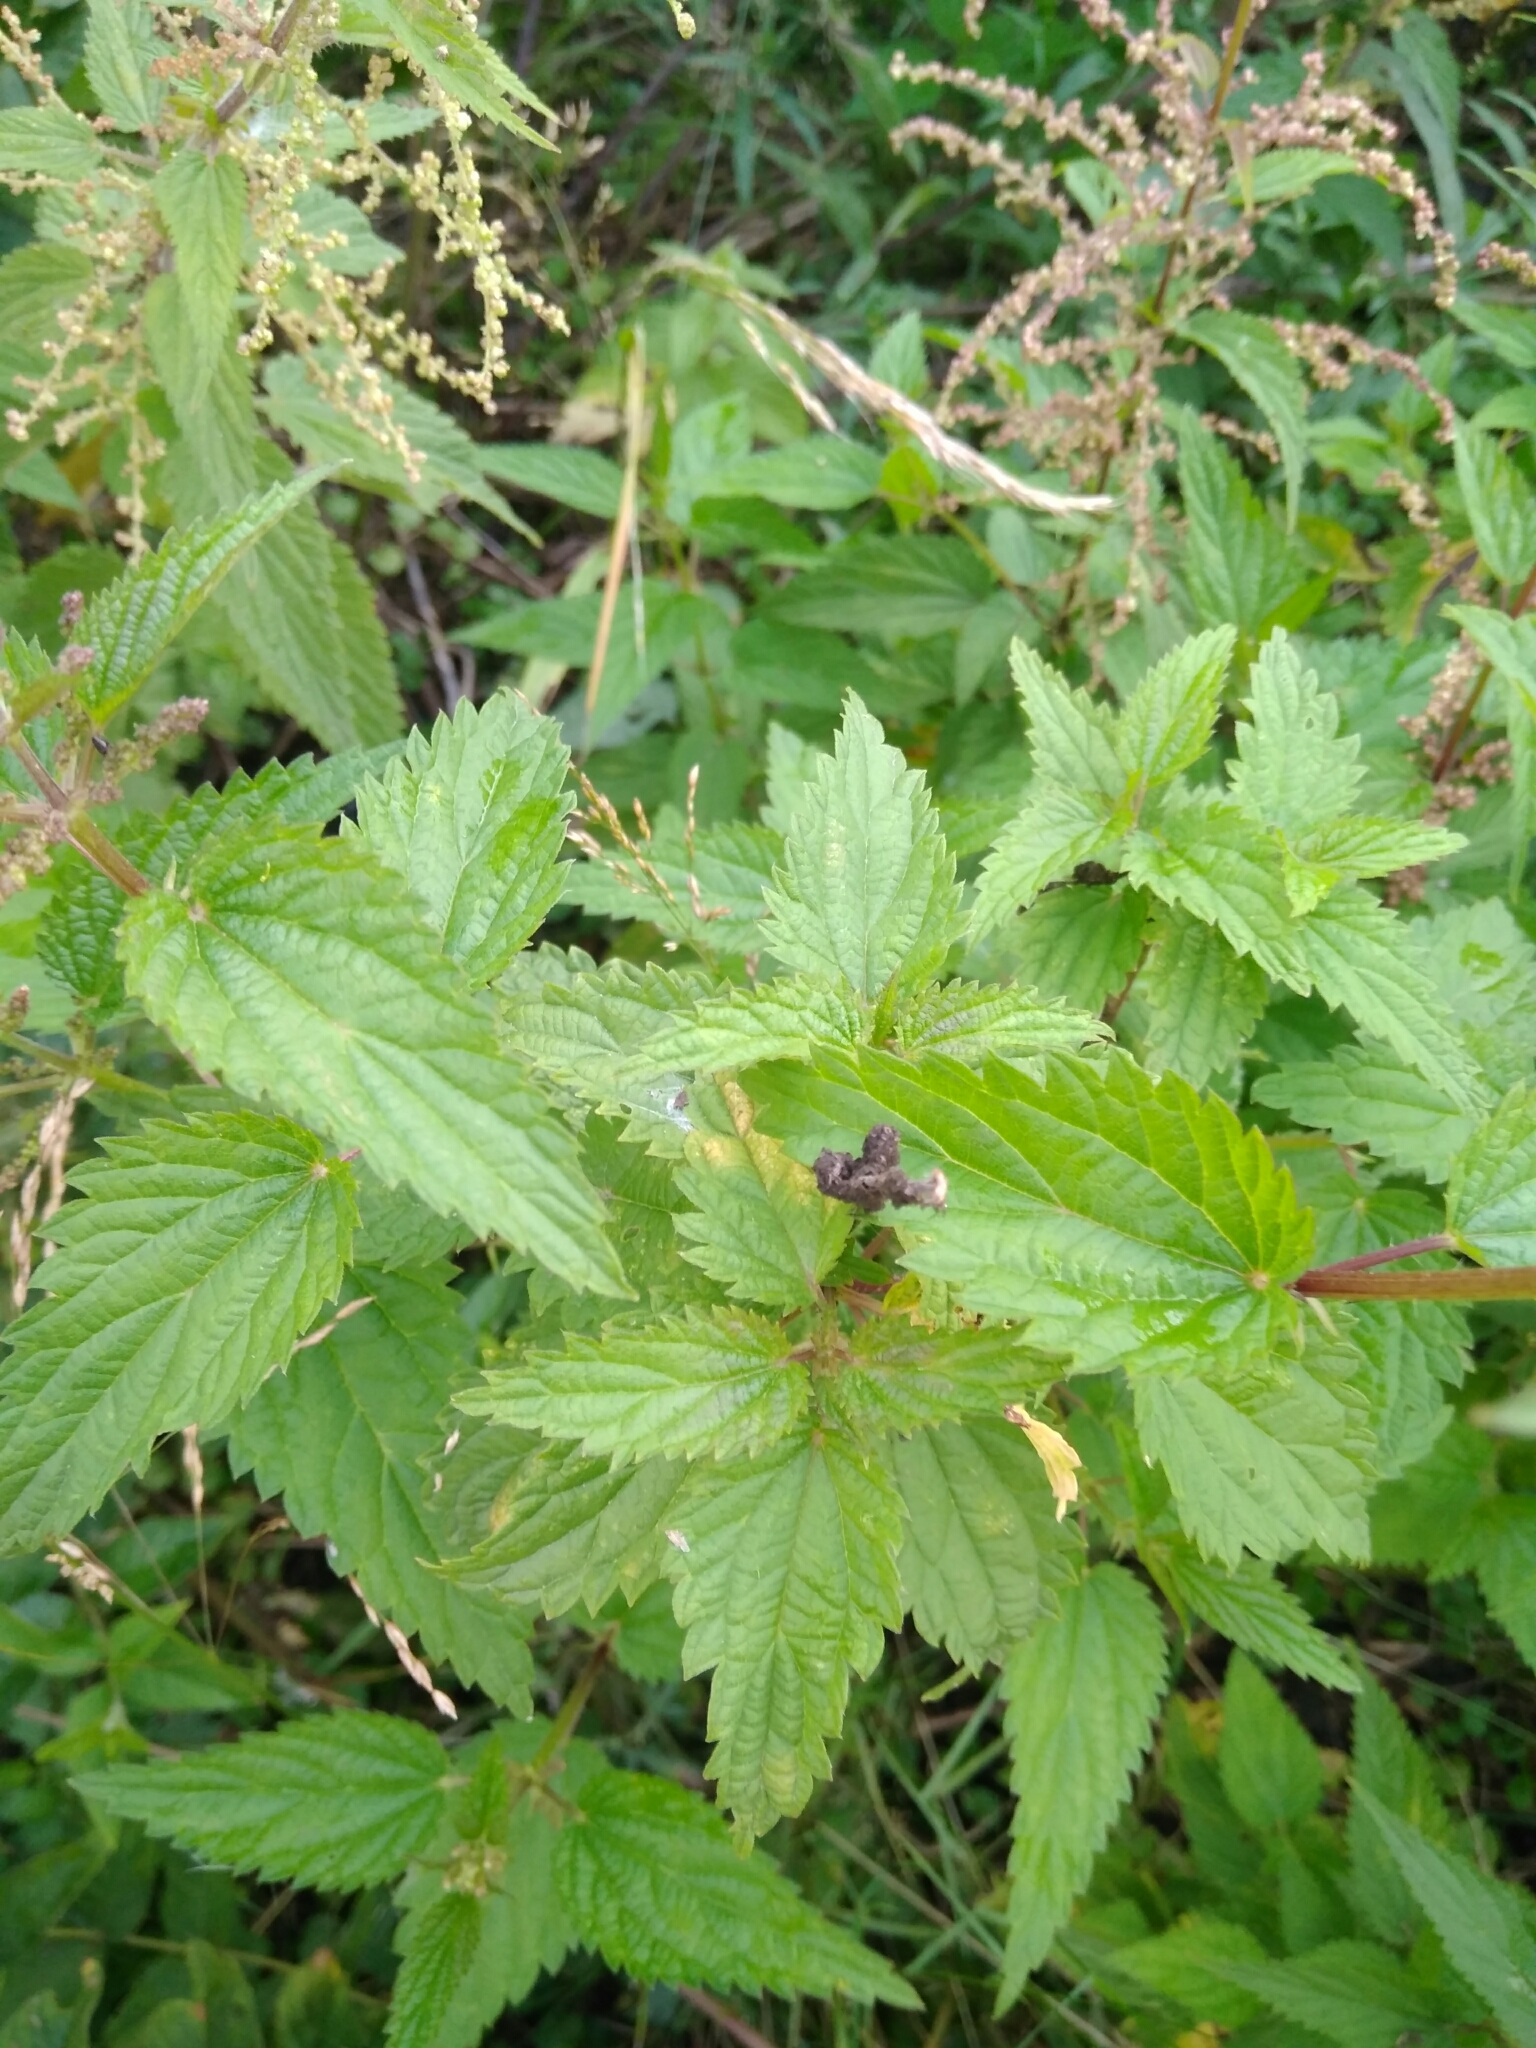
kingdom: Plantae
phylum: Tracheophyta
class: Magnoliopsida
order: Rosales
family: Urticaceae
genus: Urtica
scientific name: Urtica dioica
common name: Common nettle
